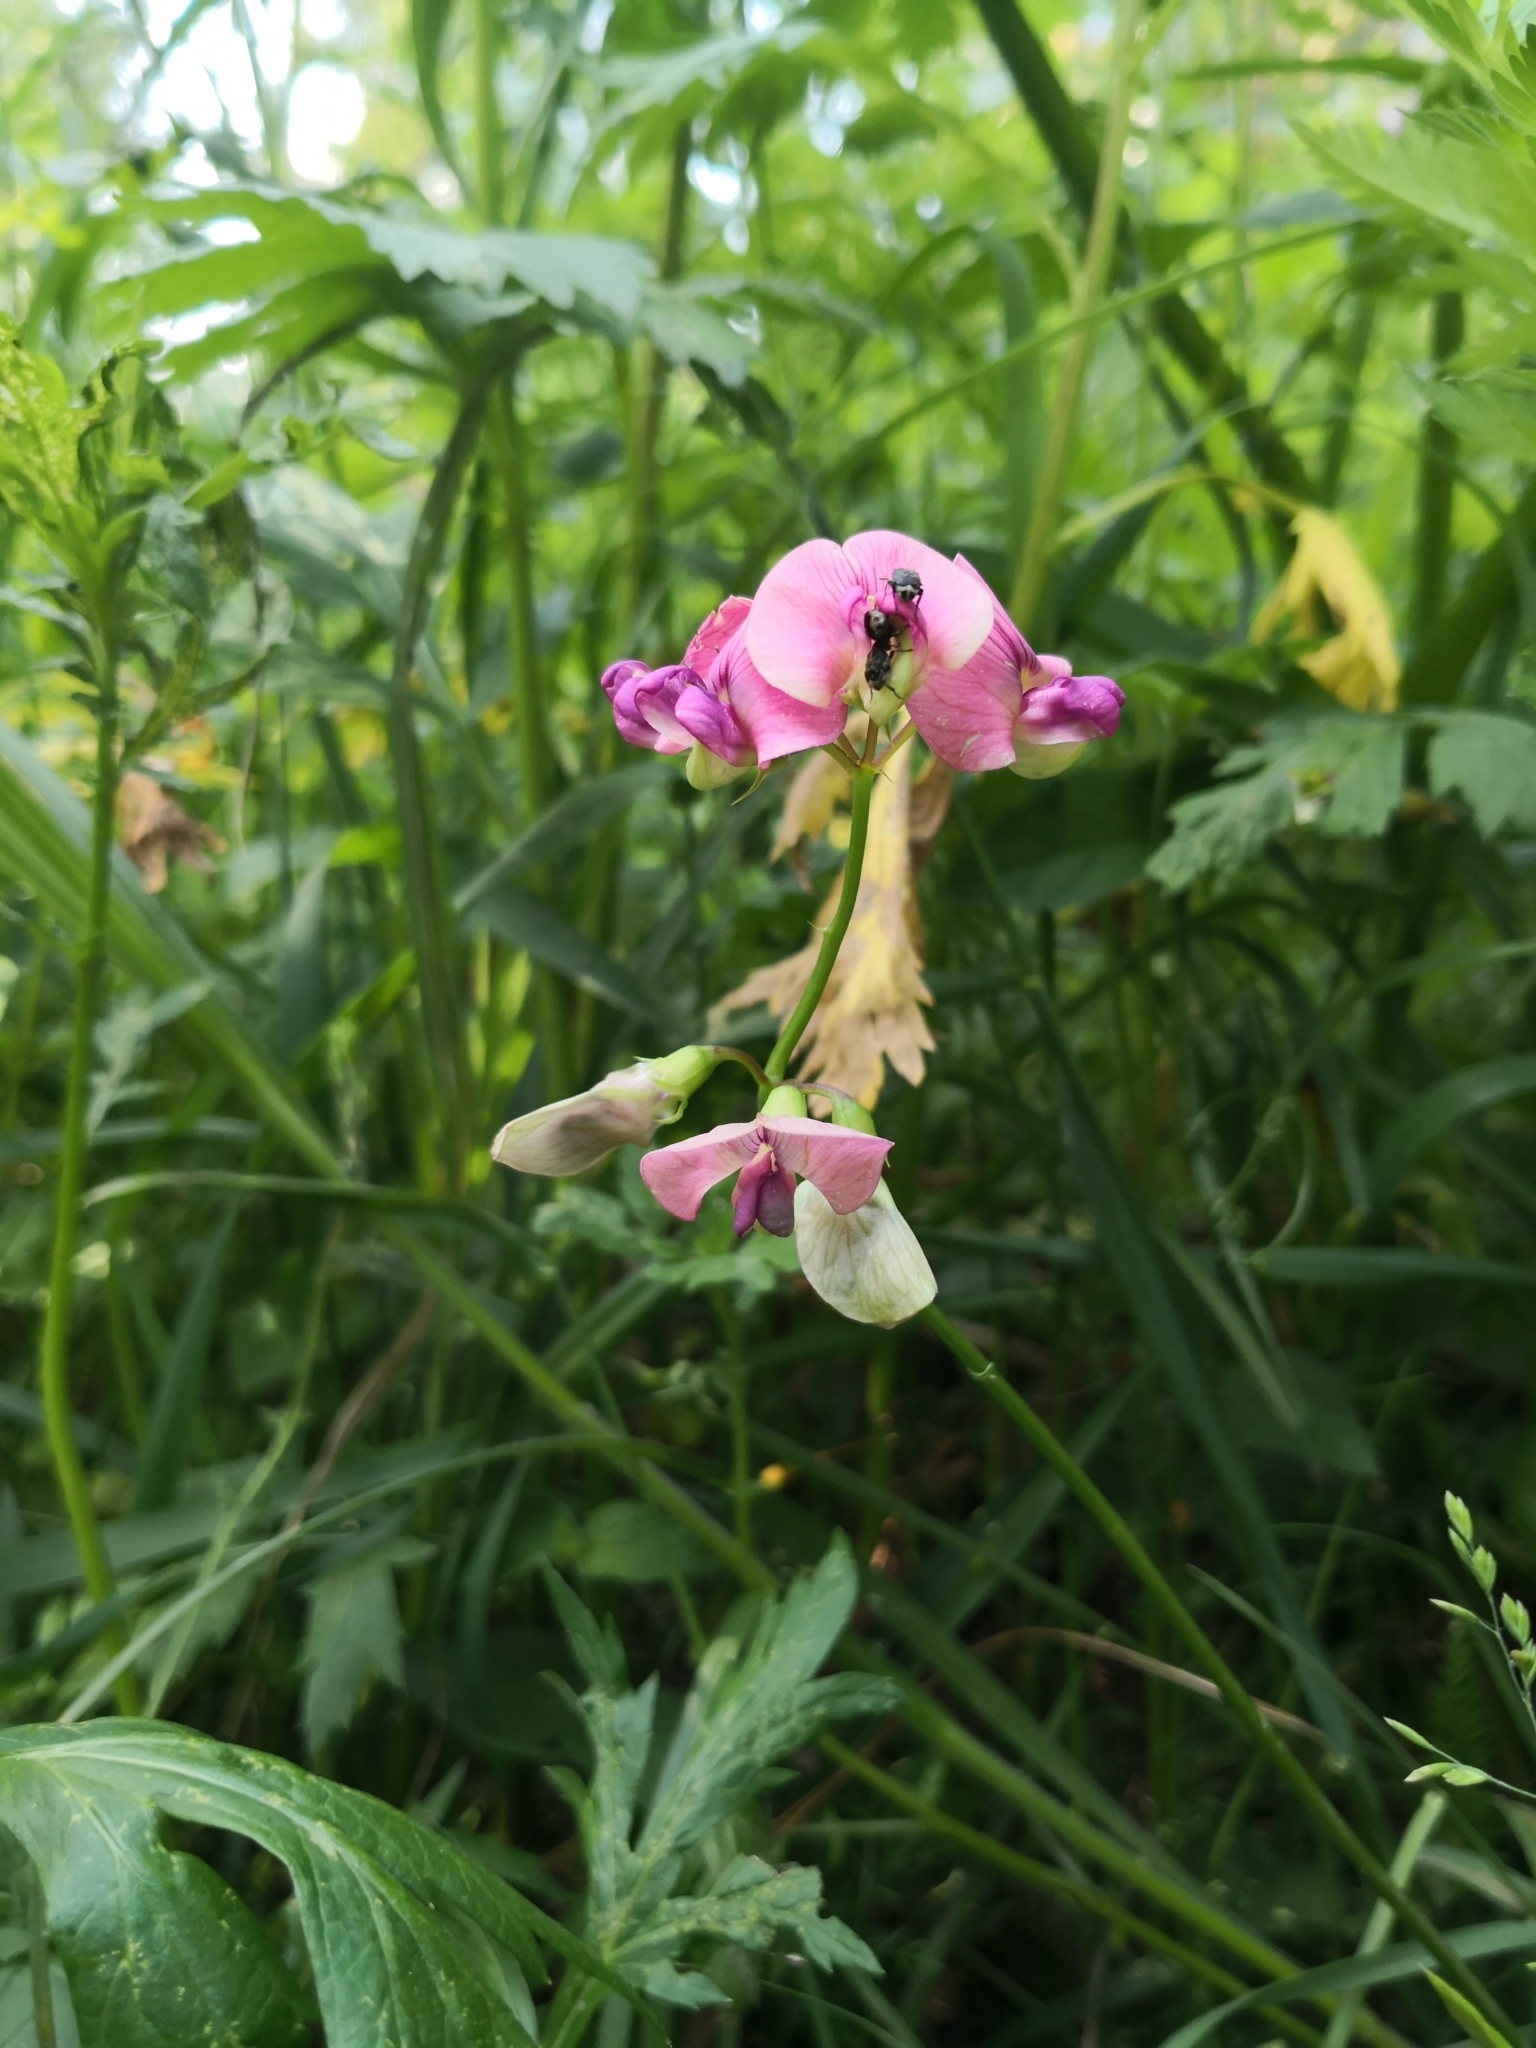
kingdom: Plantae
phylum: Tracheophyta
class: Magnoliopsida
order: Fabales
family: Fabaceae
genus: Lathyrus
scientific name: Lathyrus sylvestris
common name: Flat pea
